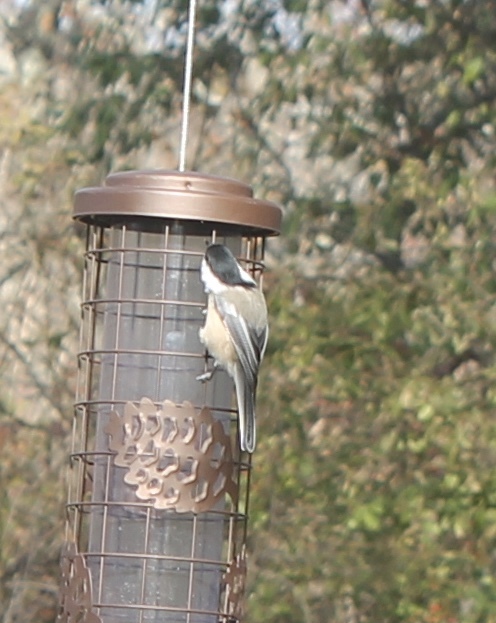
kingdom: Animalia
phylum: Chordata
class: Aves
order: Passeriformes
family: Paridae
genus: Poecile
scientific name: Poecile atricapillus
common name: Black-capped chickadee
